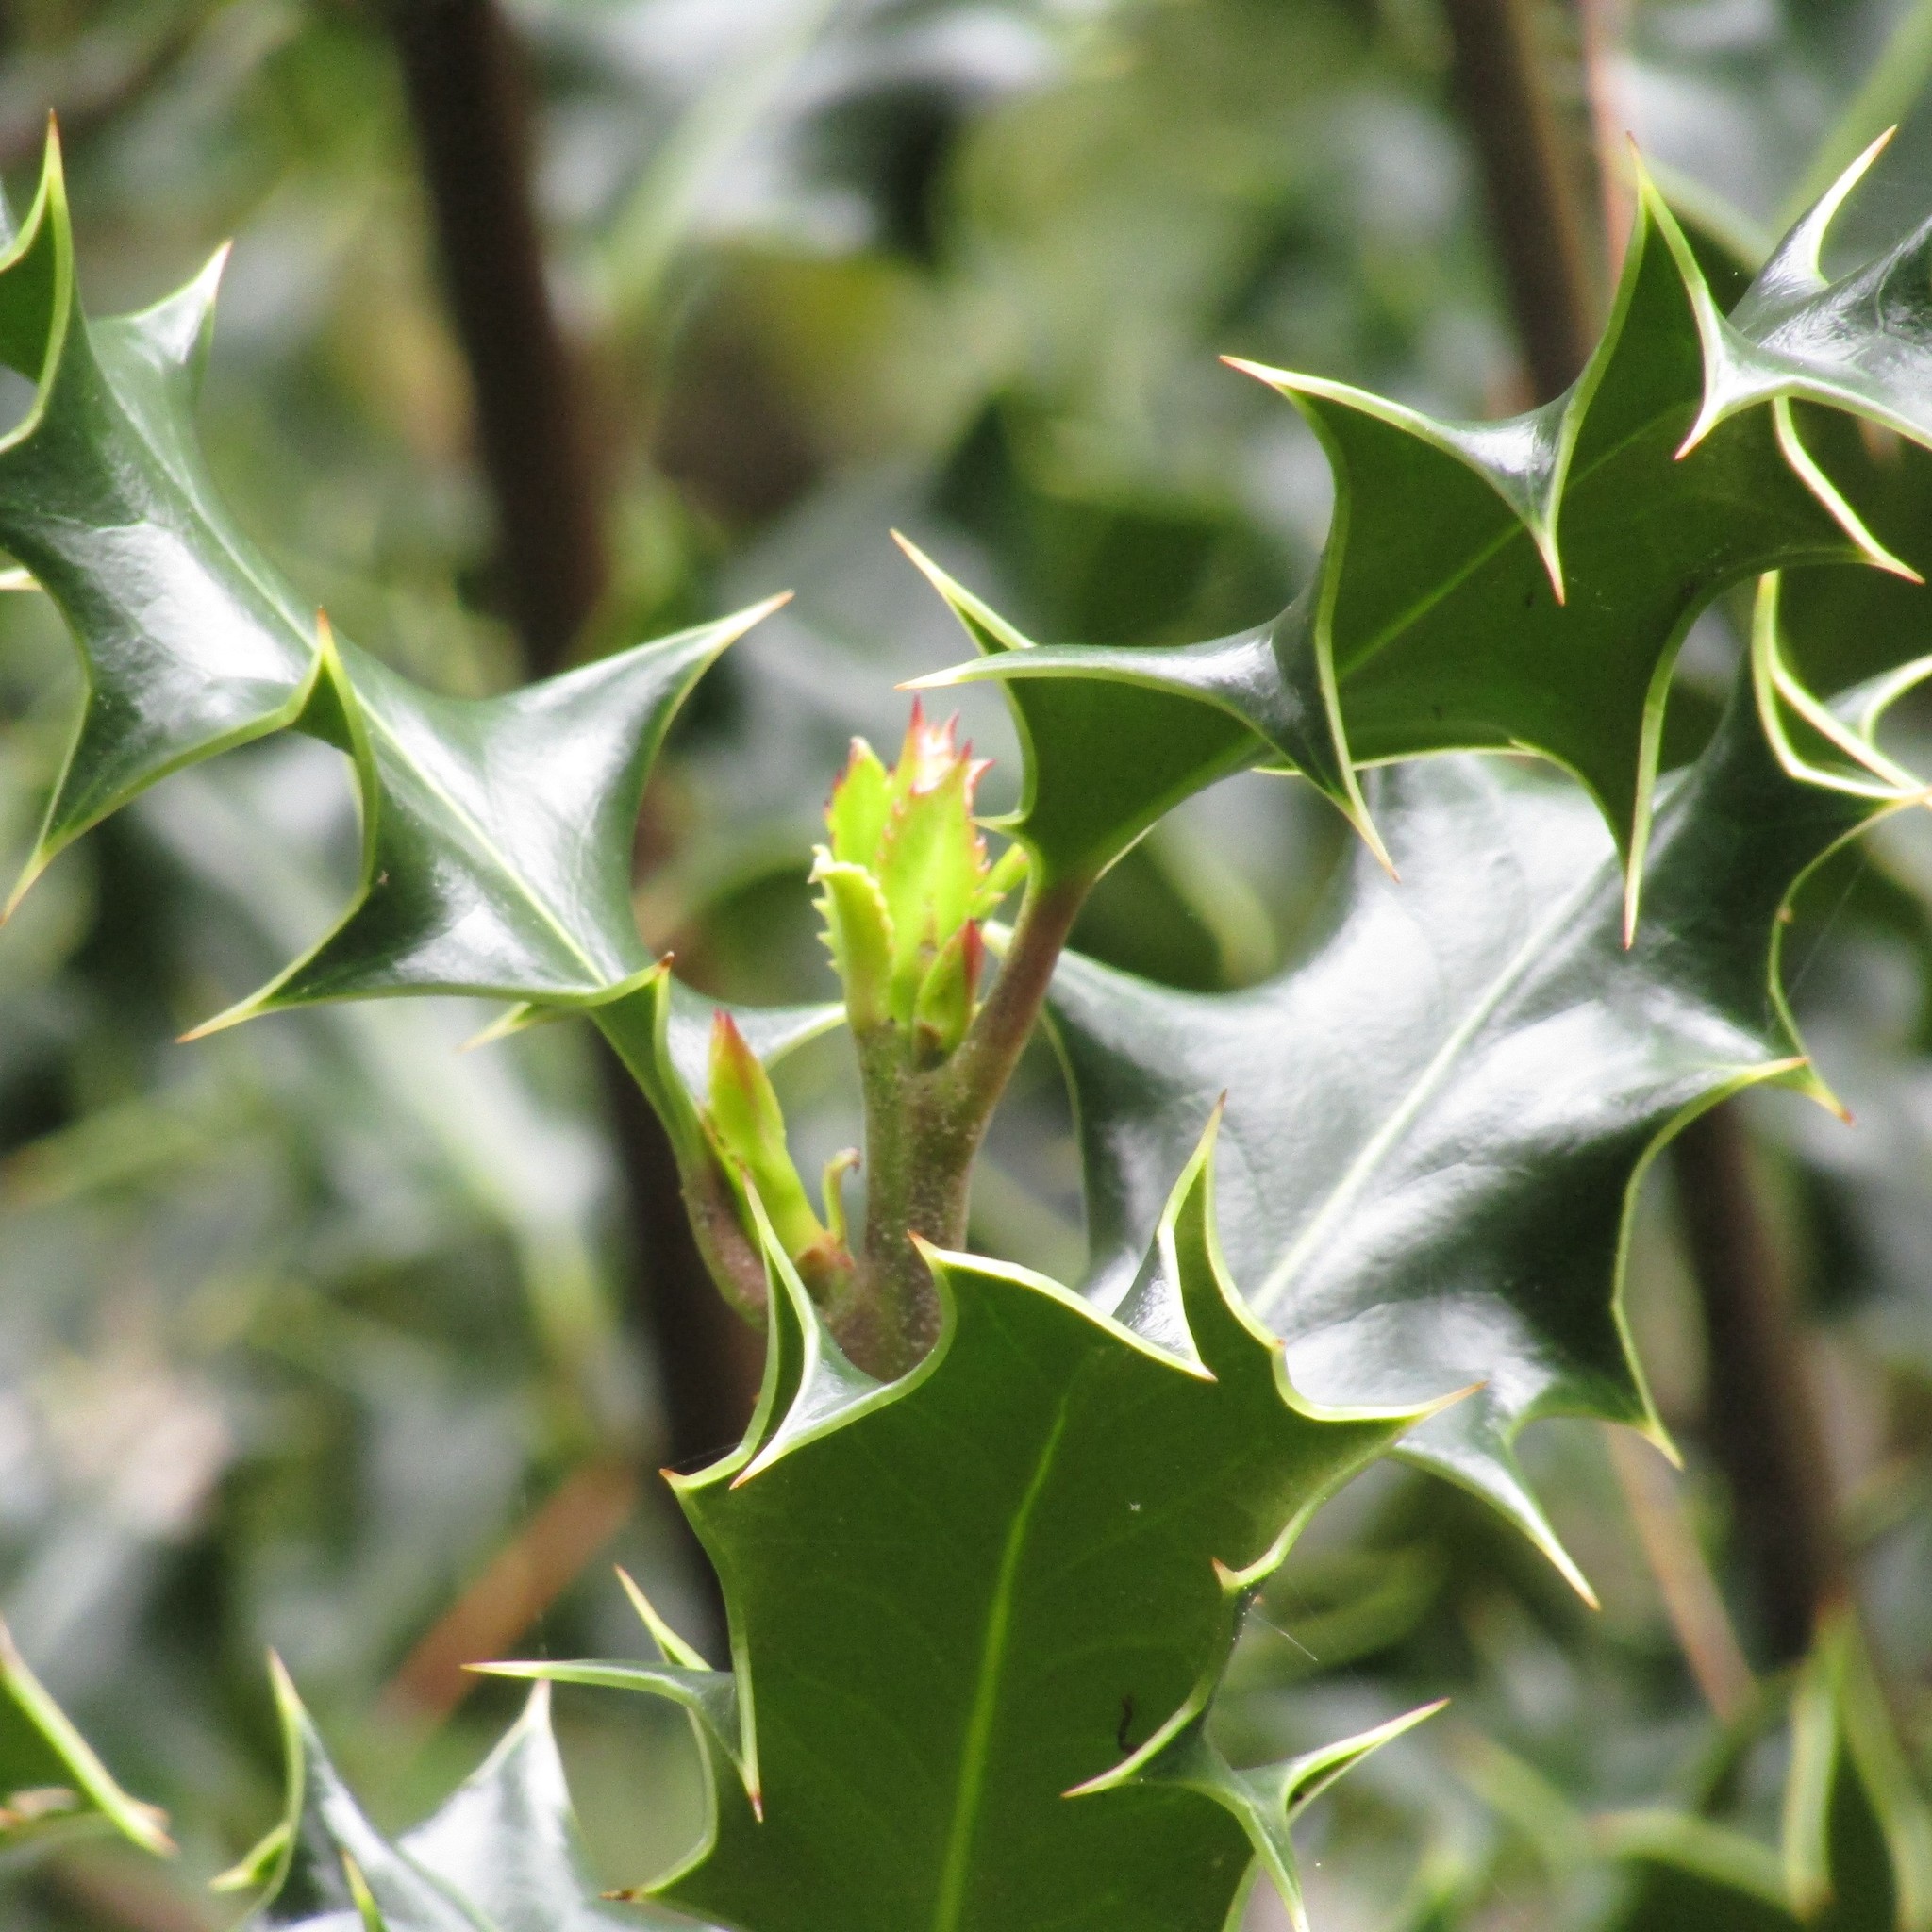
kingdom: Plantae
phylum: Tracheophyta
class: Magnoliopsida
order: Aquifoliales
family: Aquifoliaceae
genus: Ilex
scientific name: Ilex aquifolium
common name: English holly
